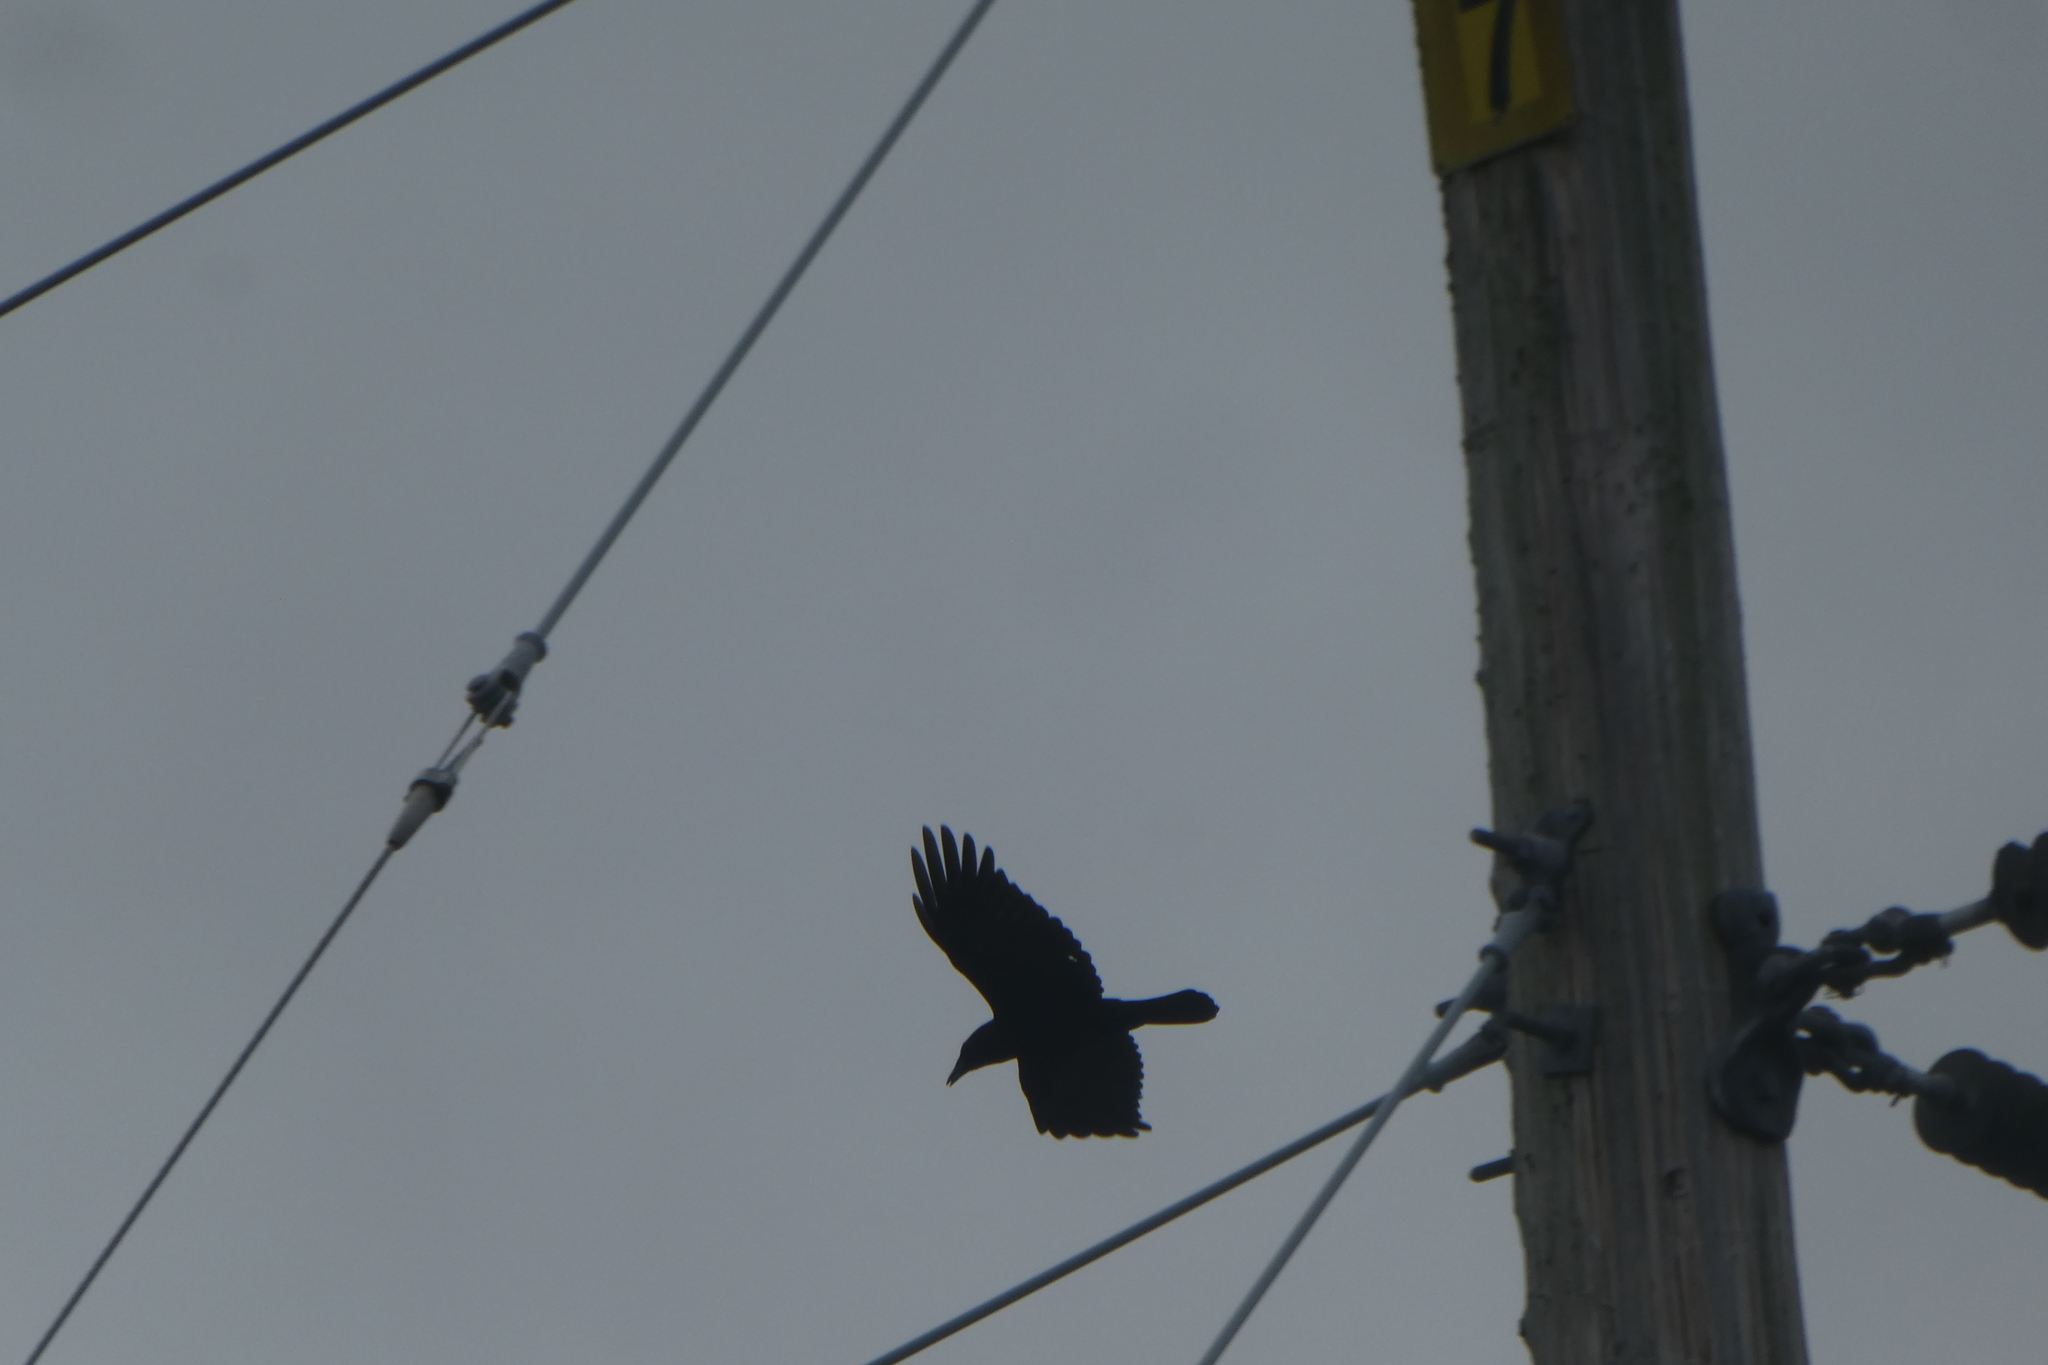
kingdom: Animalia
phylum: Chordata
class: Aves
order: Passeriformes
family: Corvidae
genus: Corvus
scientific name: Corvus brachyrhynchos
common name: American crow
